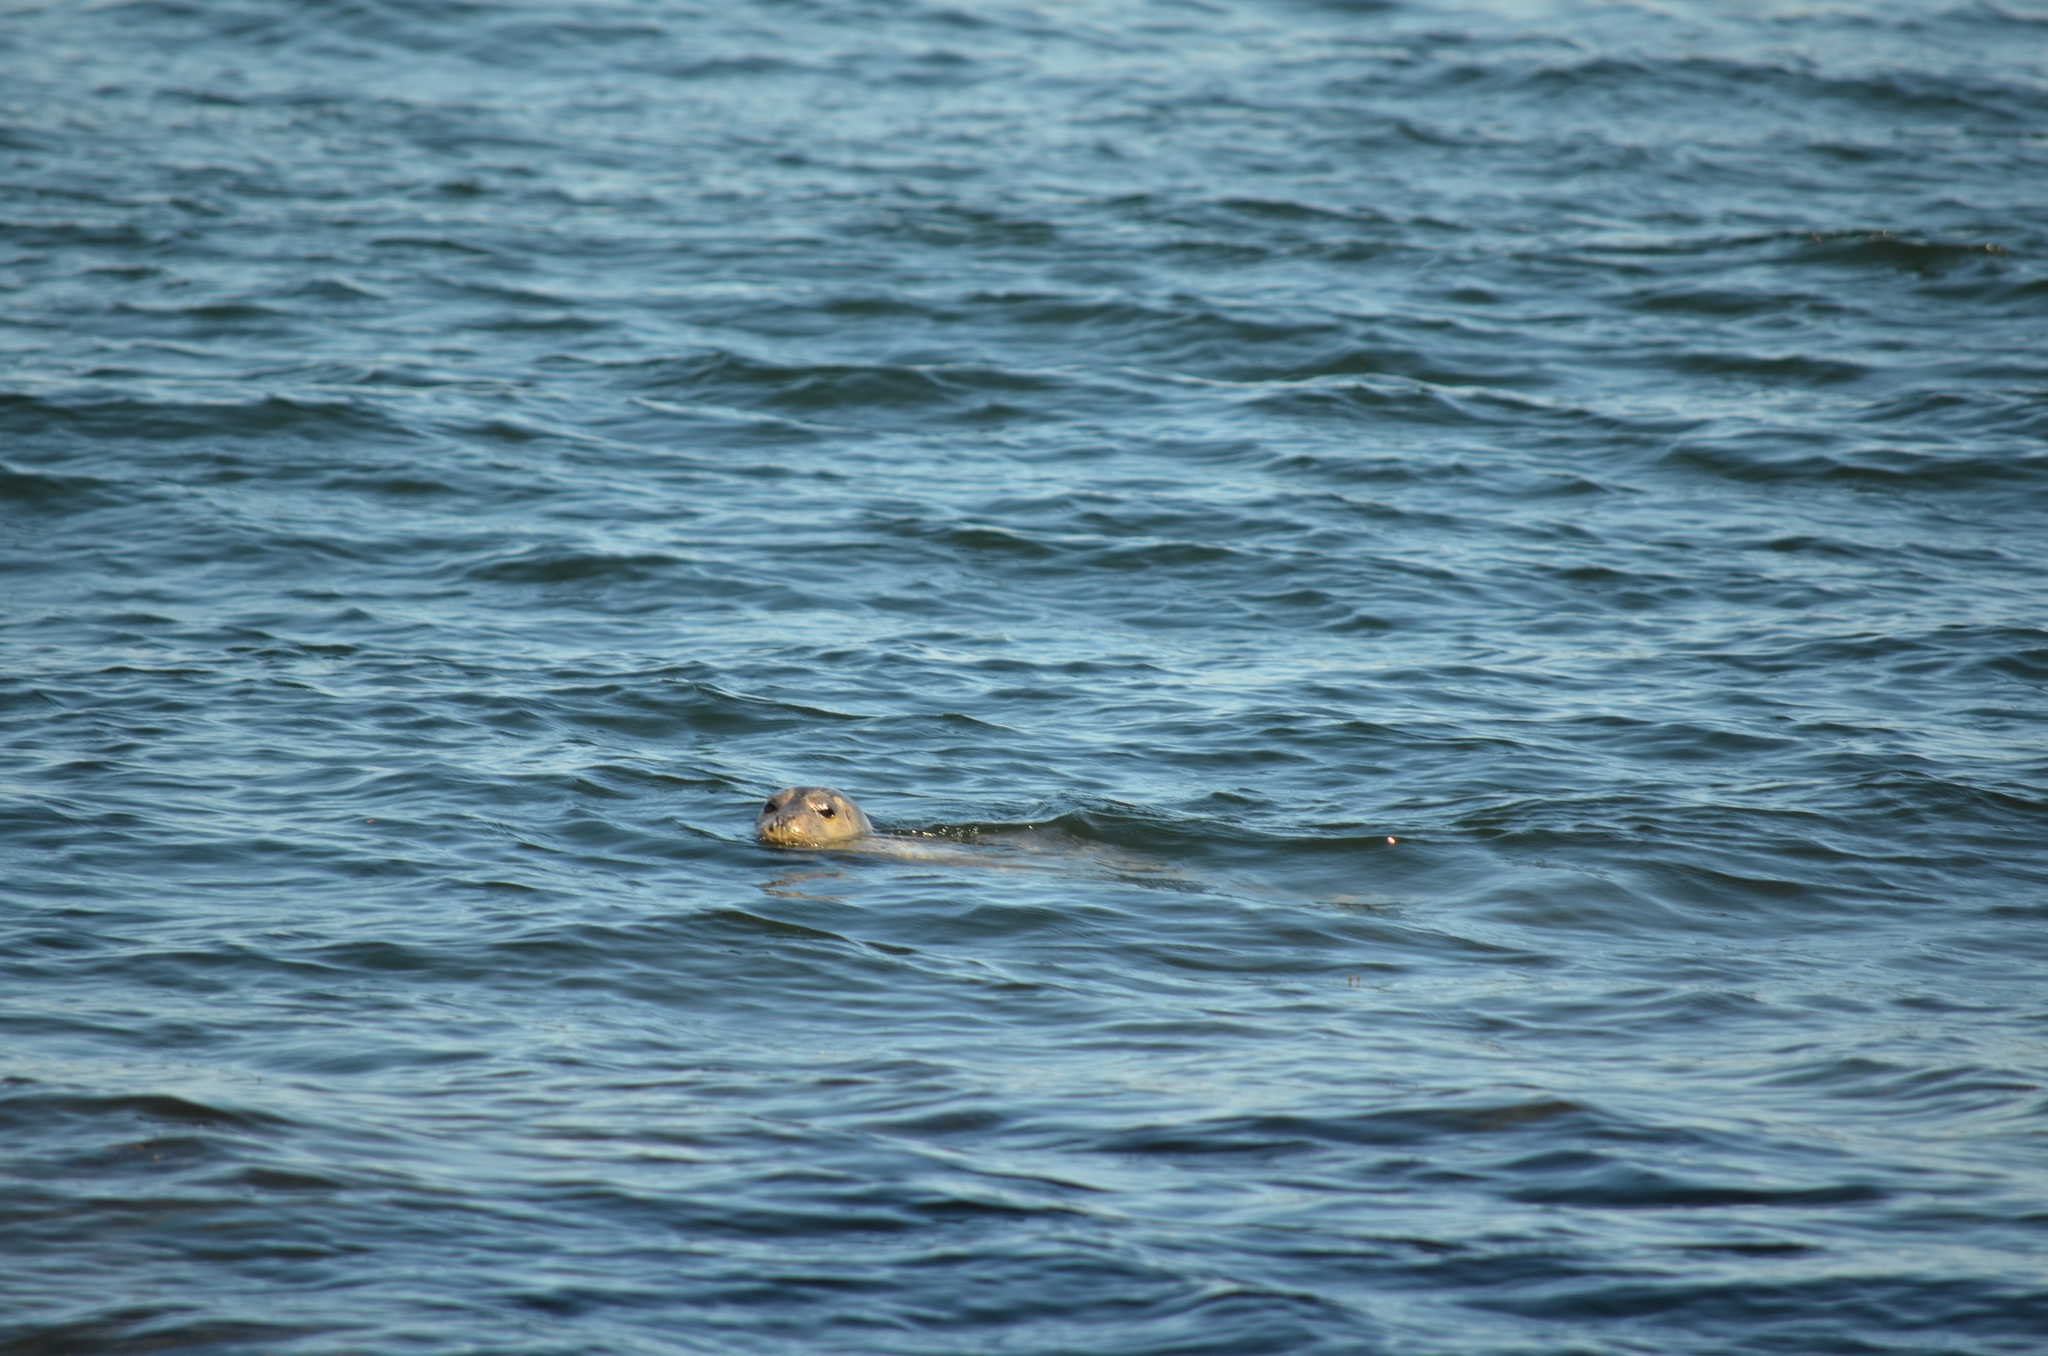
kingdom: Animalia
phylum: Chordata
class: Mammalia
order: Carnivora
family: Phocidae
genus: Phoca
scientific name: Phoca vitulina
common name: Harbor seal
